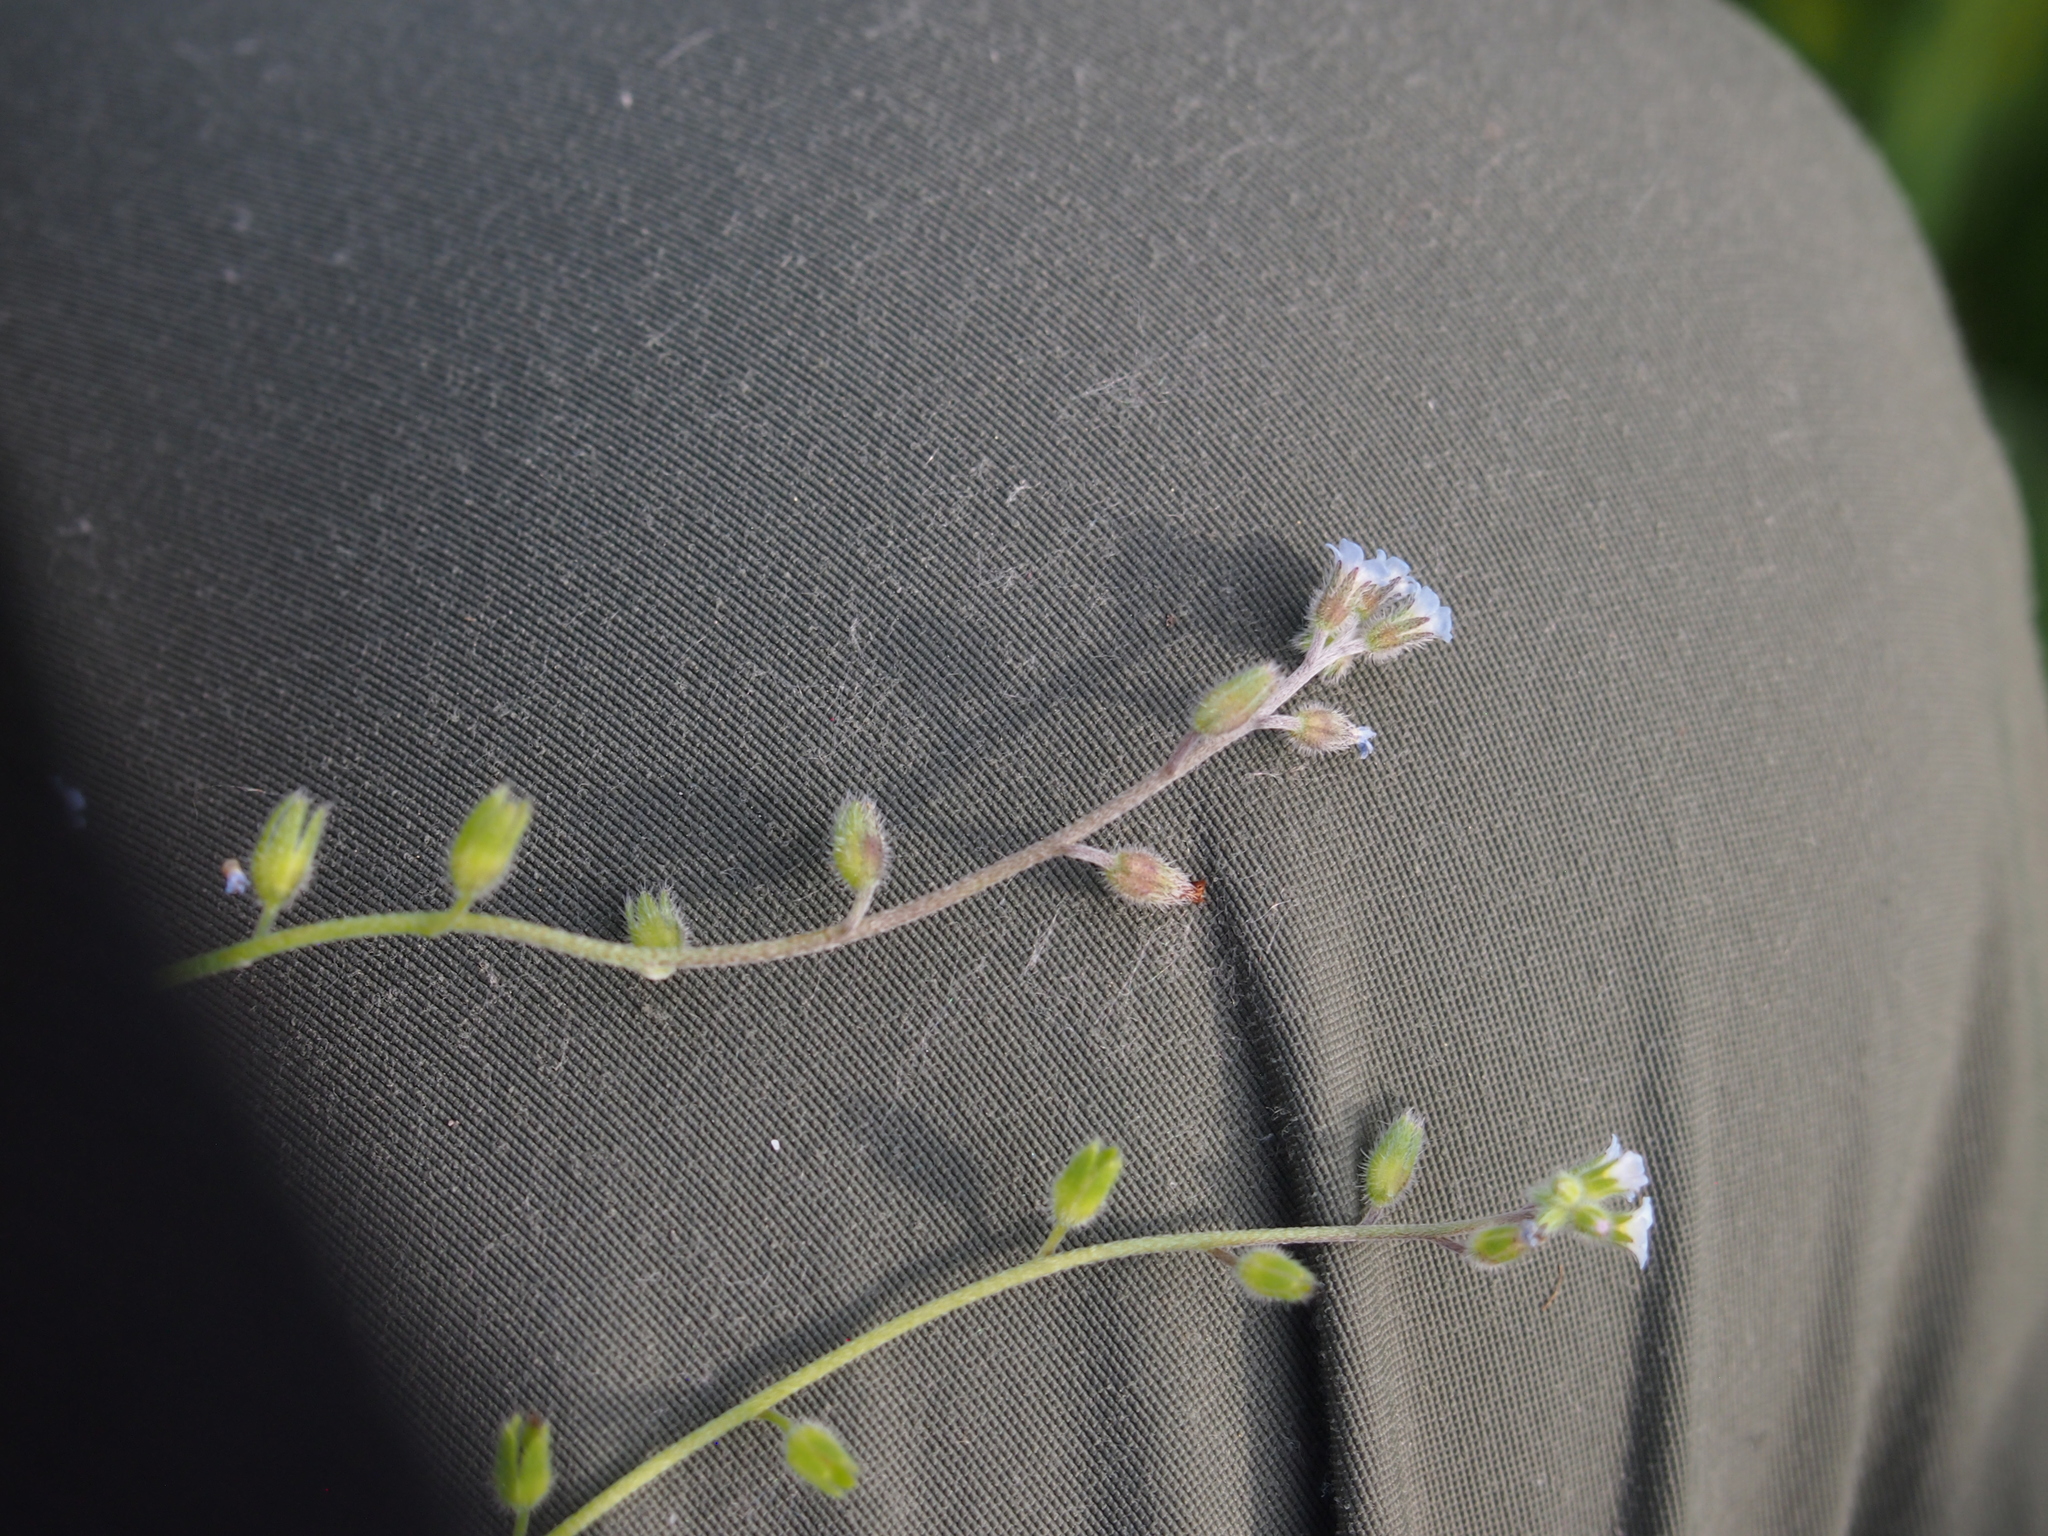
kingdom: Plantae
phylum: Tracheophyta
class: Magnoliopsida
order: Boraginales
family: Boraginaceae
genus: Myosotis
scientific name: Myosotis stricta
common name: Strict forget-me-not
